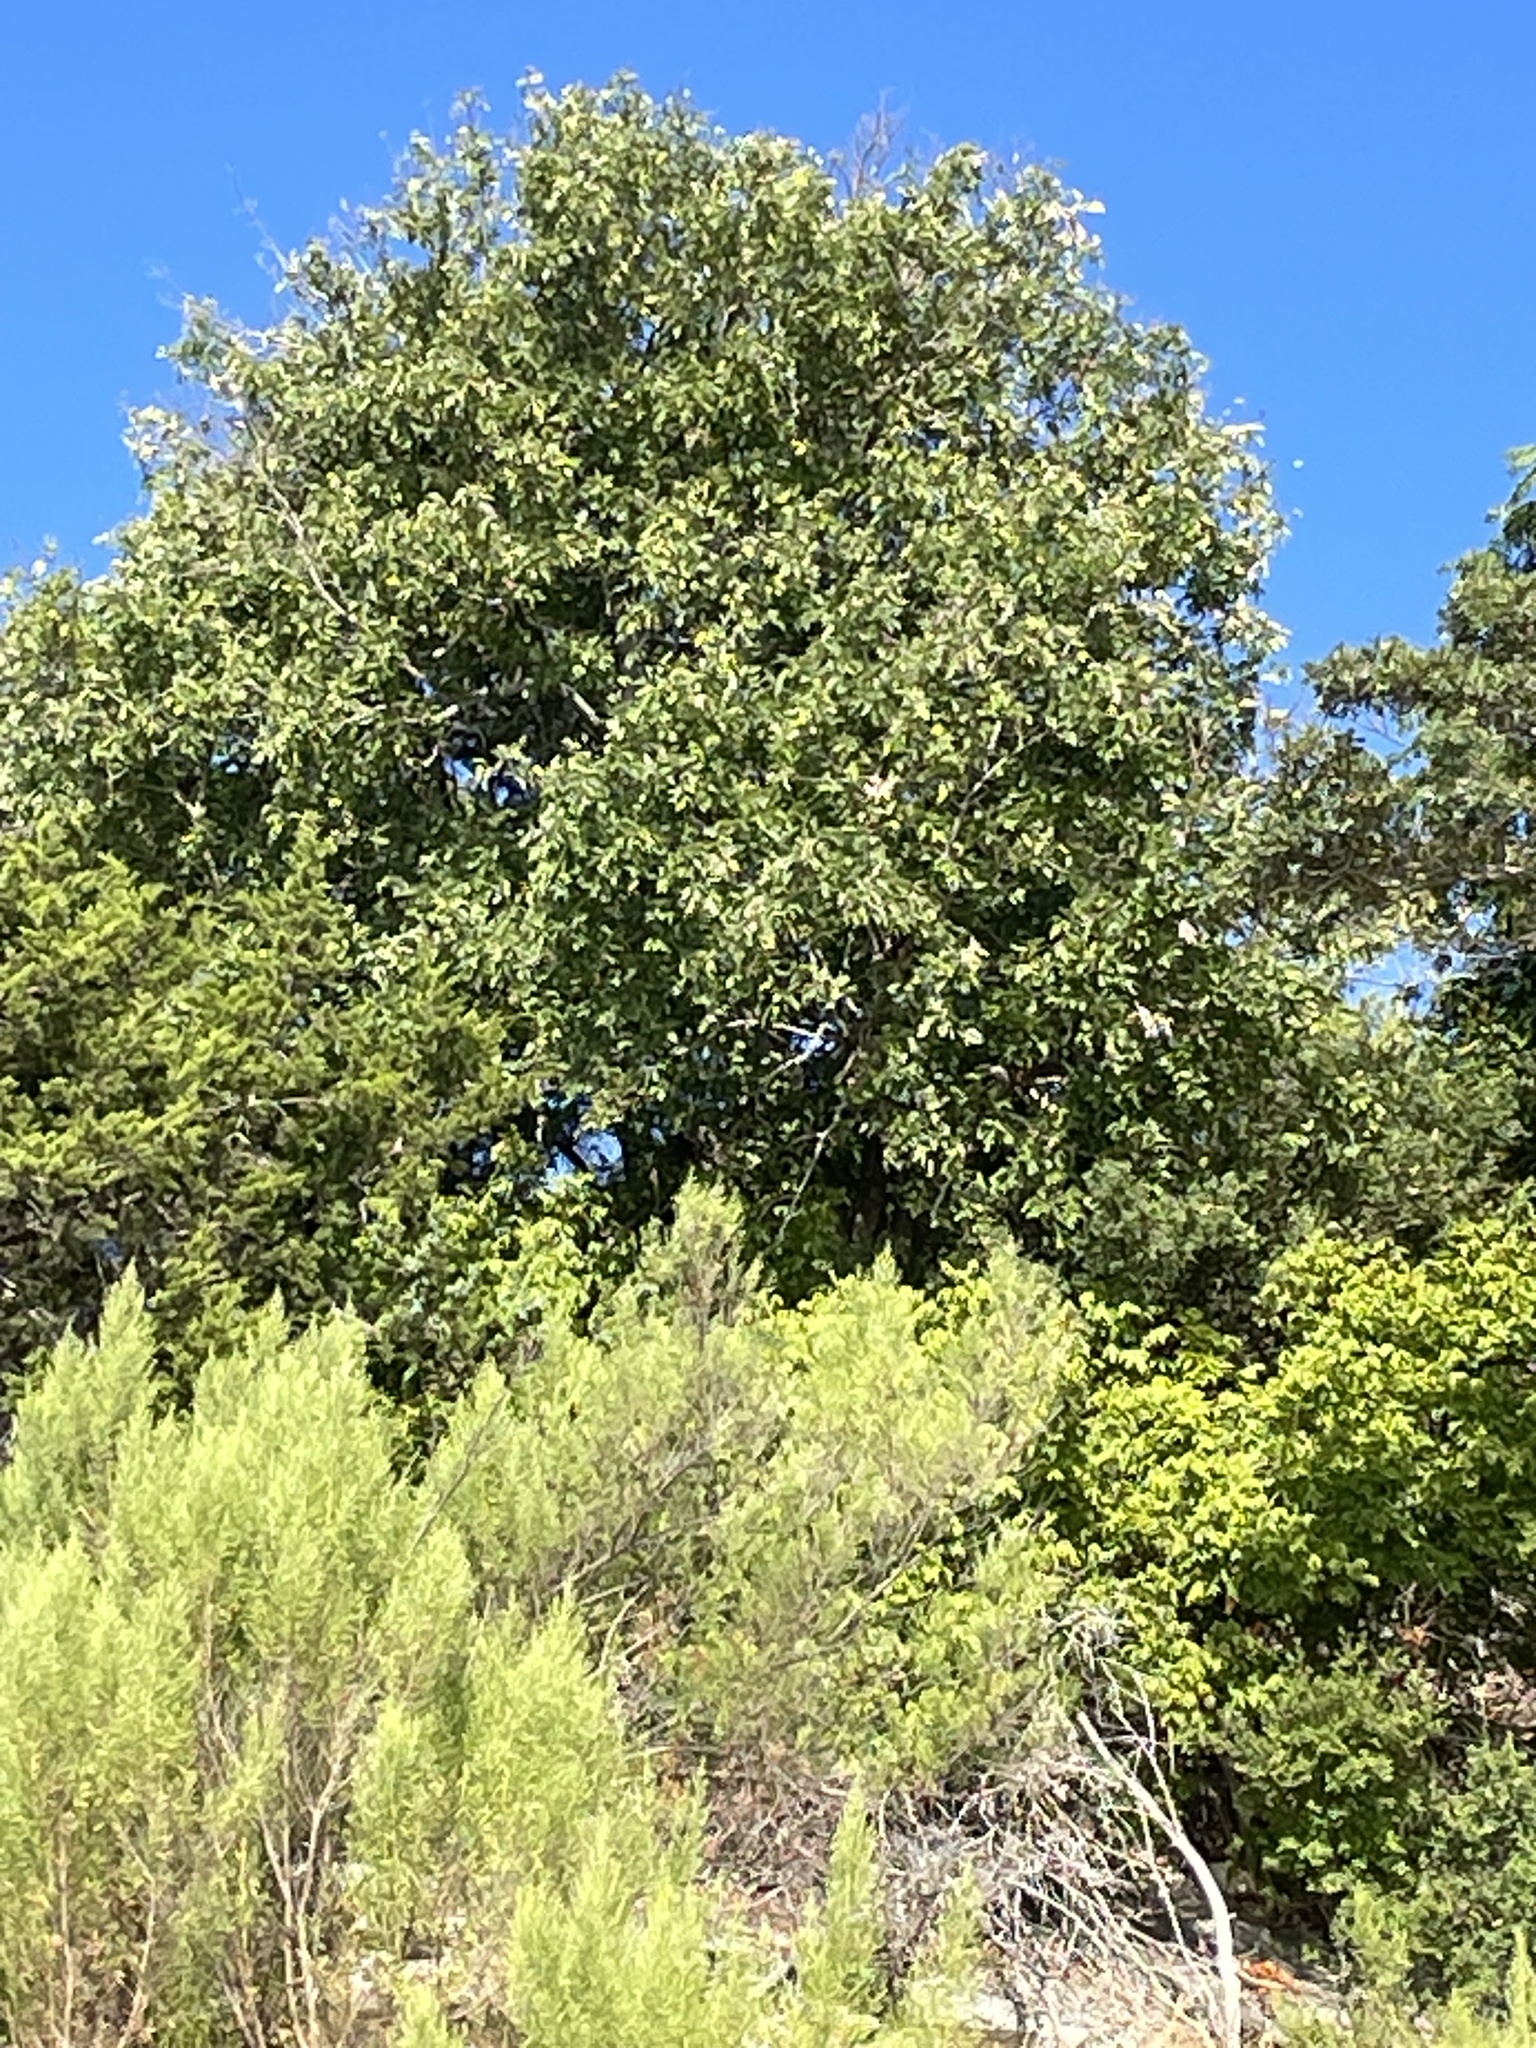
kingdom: Plantae
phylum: Tracheophyta
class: Magnoliopsida
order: Fagales
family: Fagaceae
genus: Quercus
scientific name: Quercus muehlenbergii
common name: Chinkapin oak
